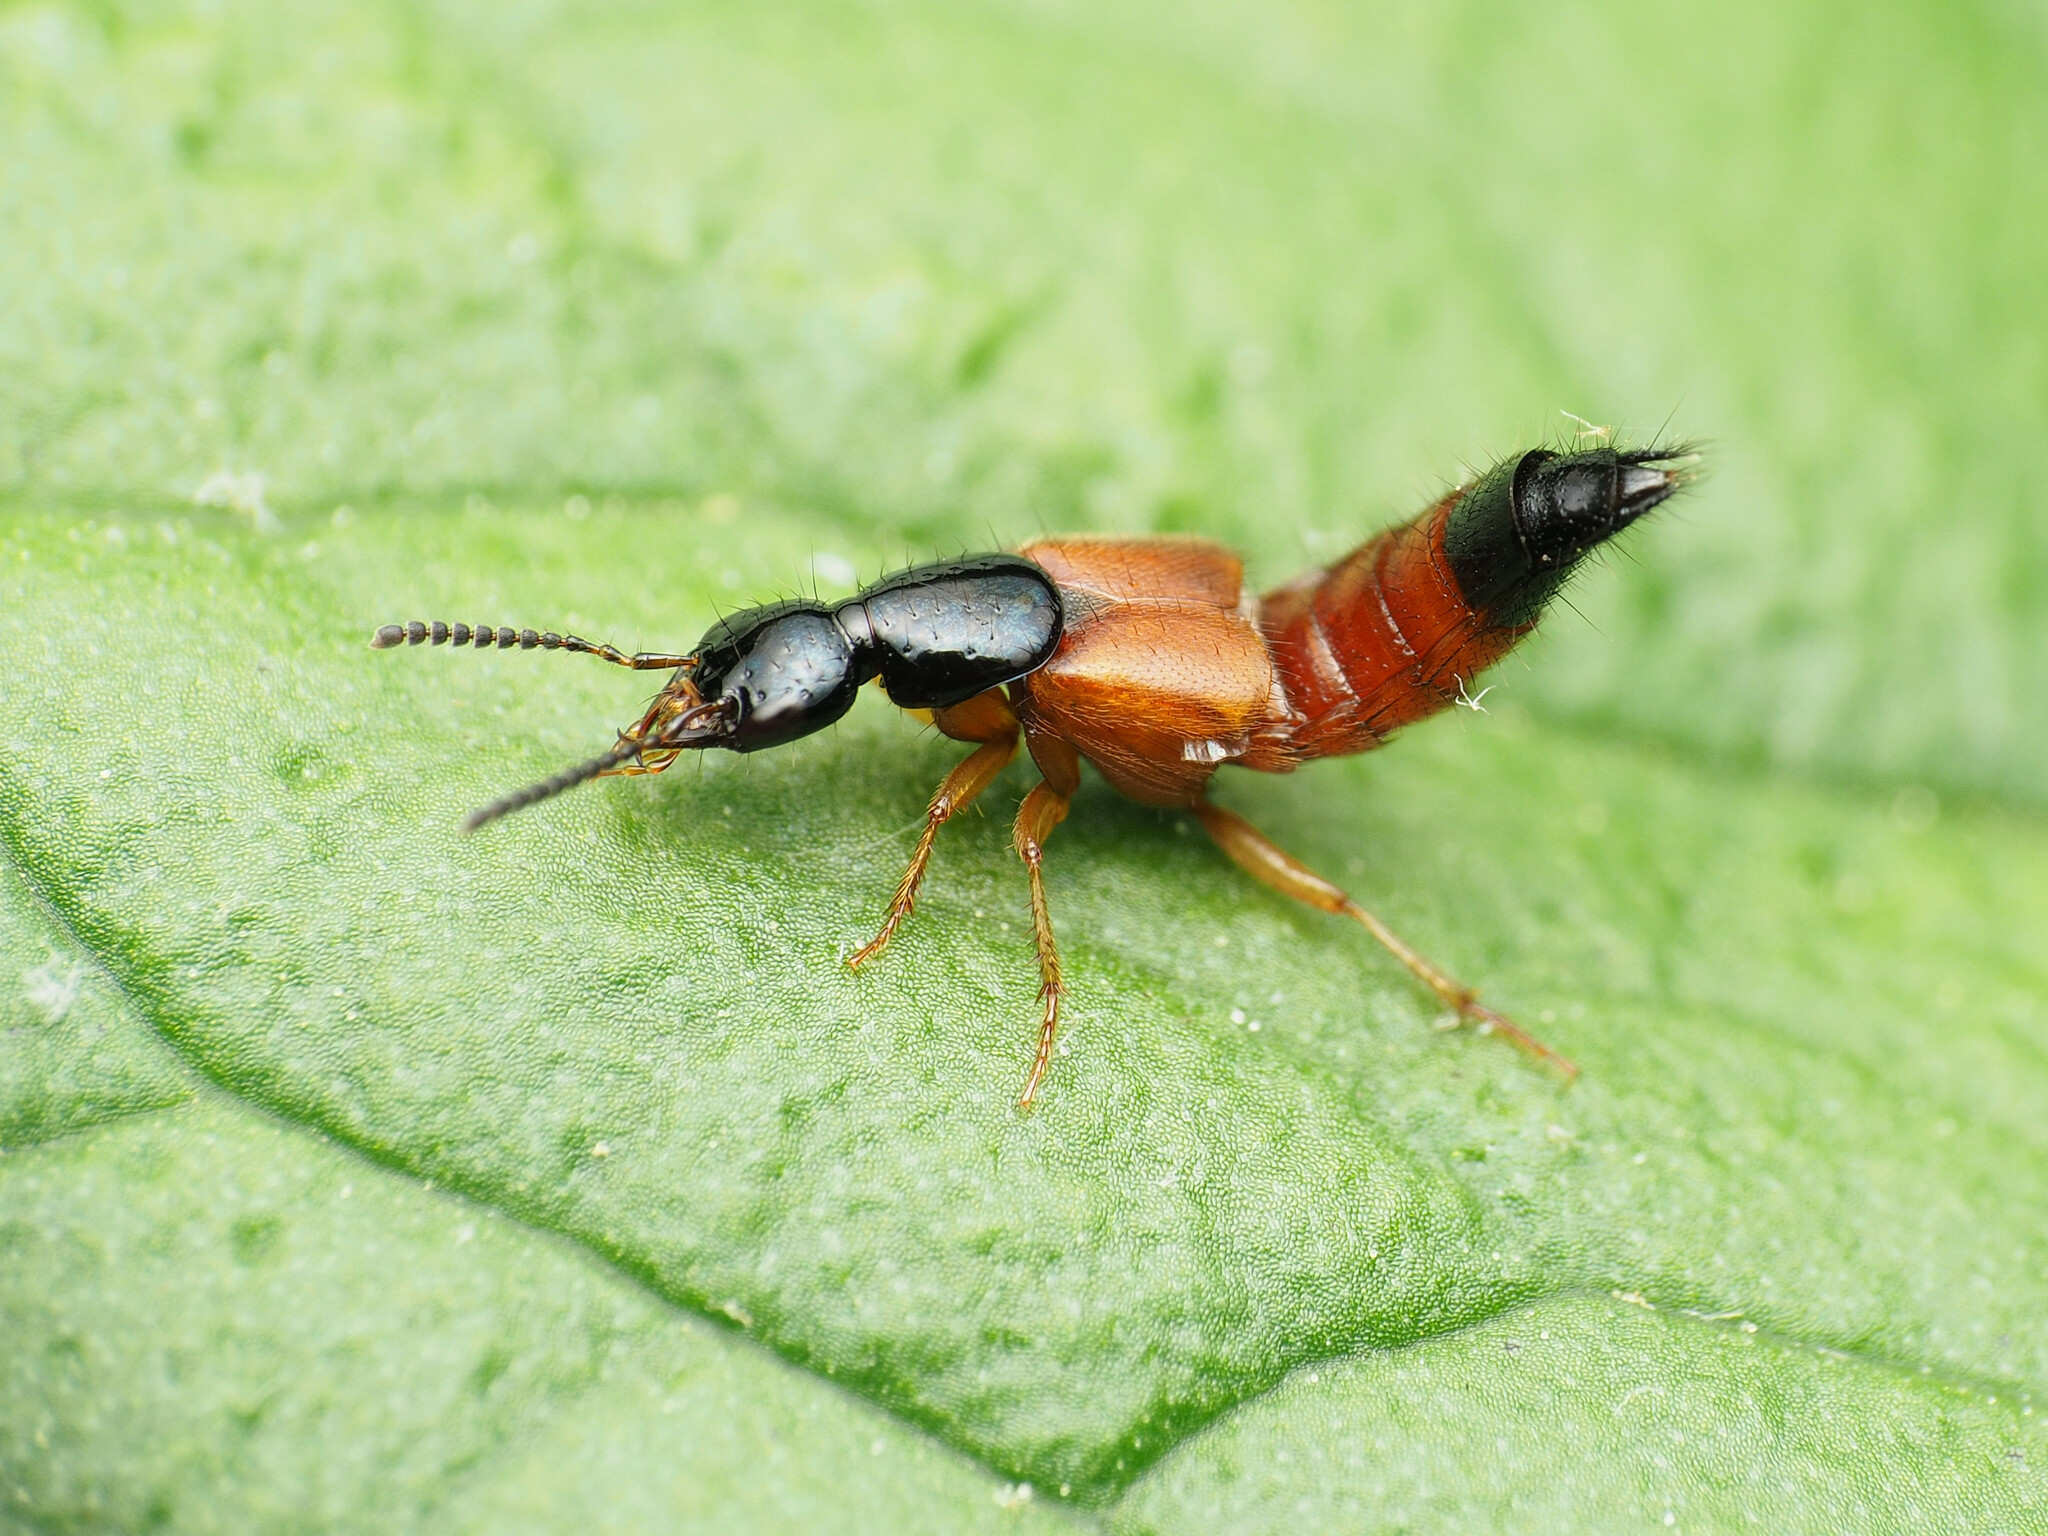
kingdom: Animalia
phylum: Arthropoda
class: Insecta
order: Coleoptera
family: Staphylinidae
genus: Belonuchus
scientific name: Belonuchus rufipennis
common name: Large rove beetle
